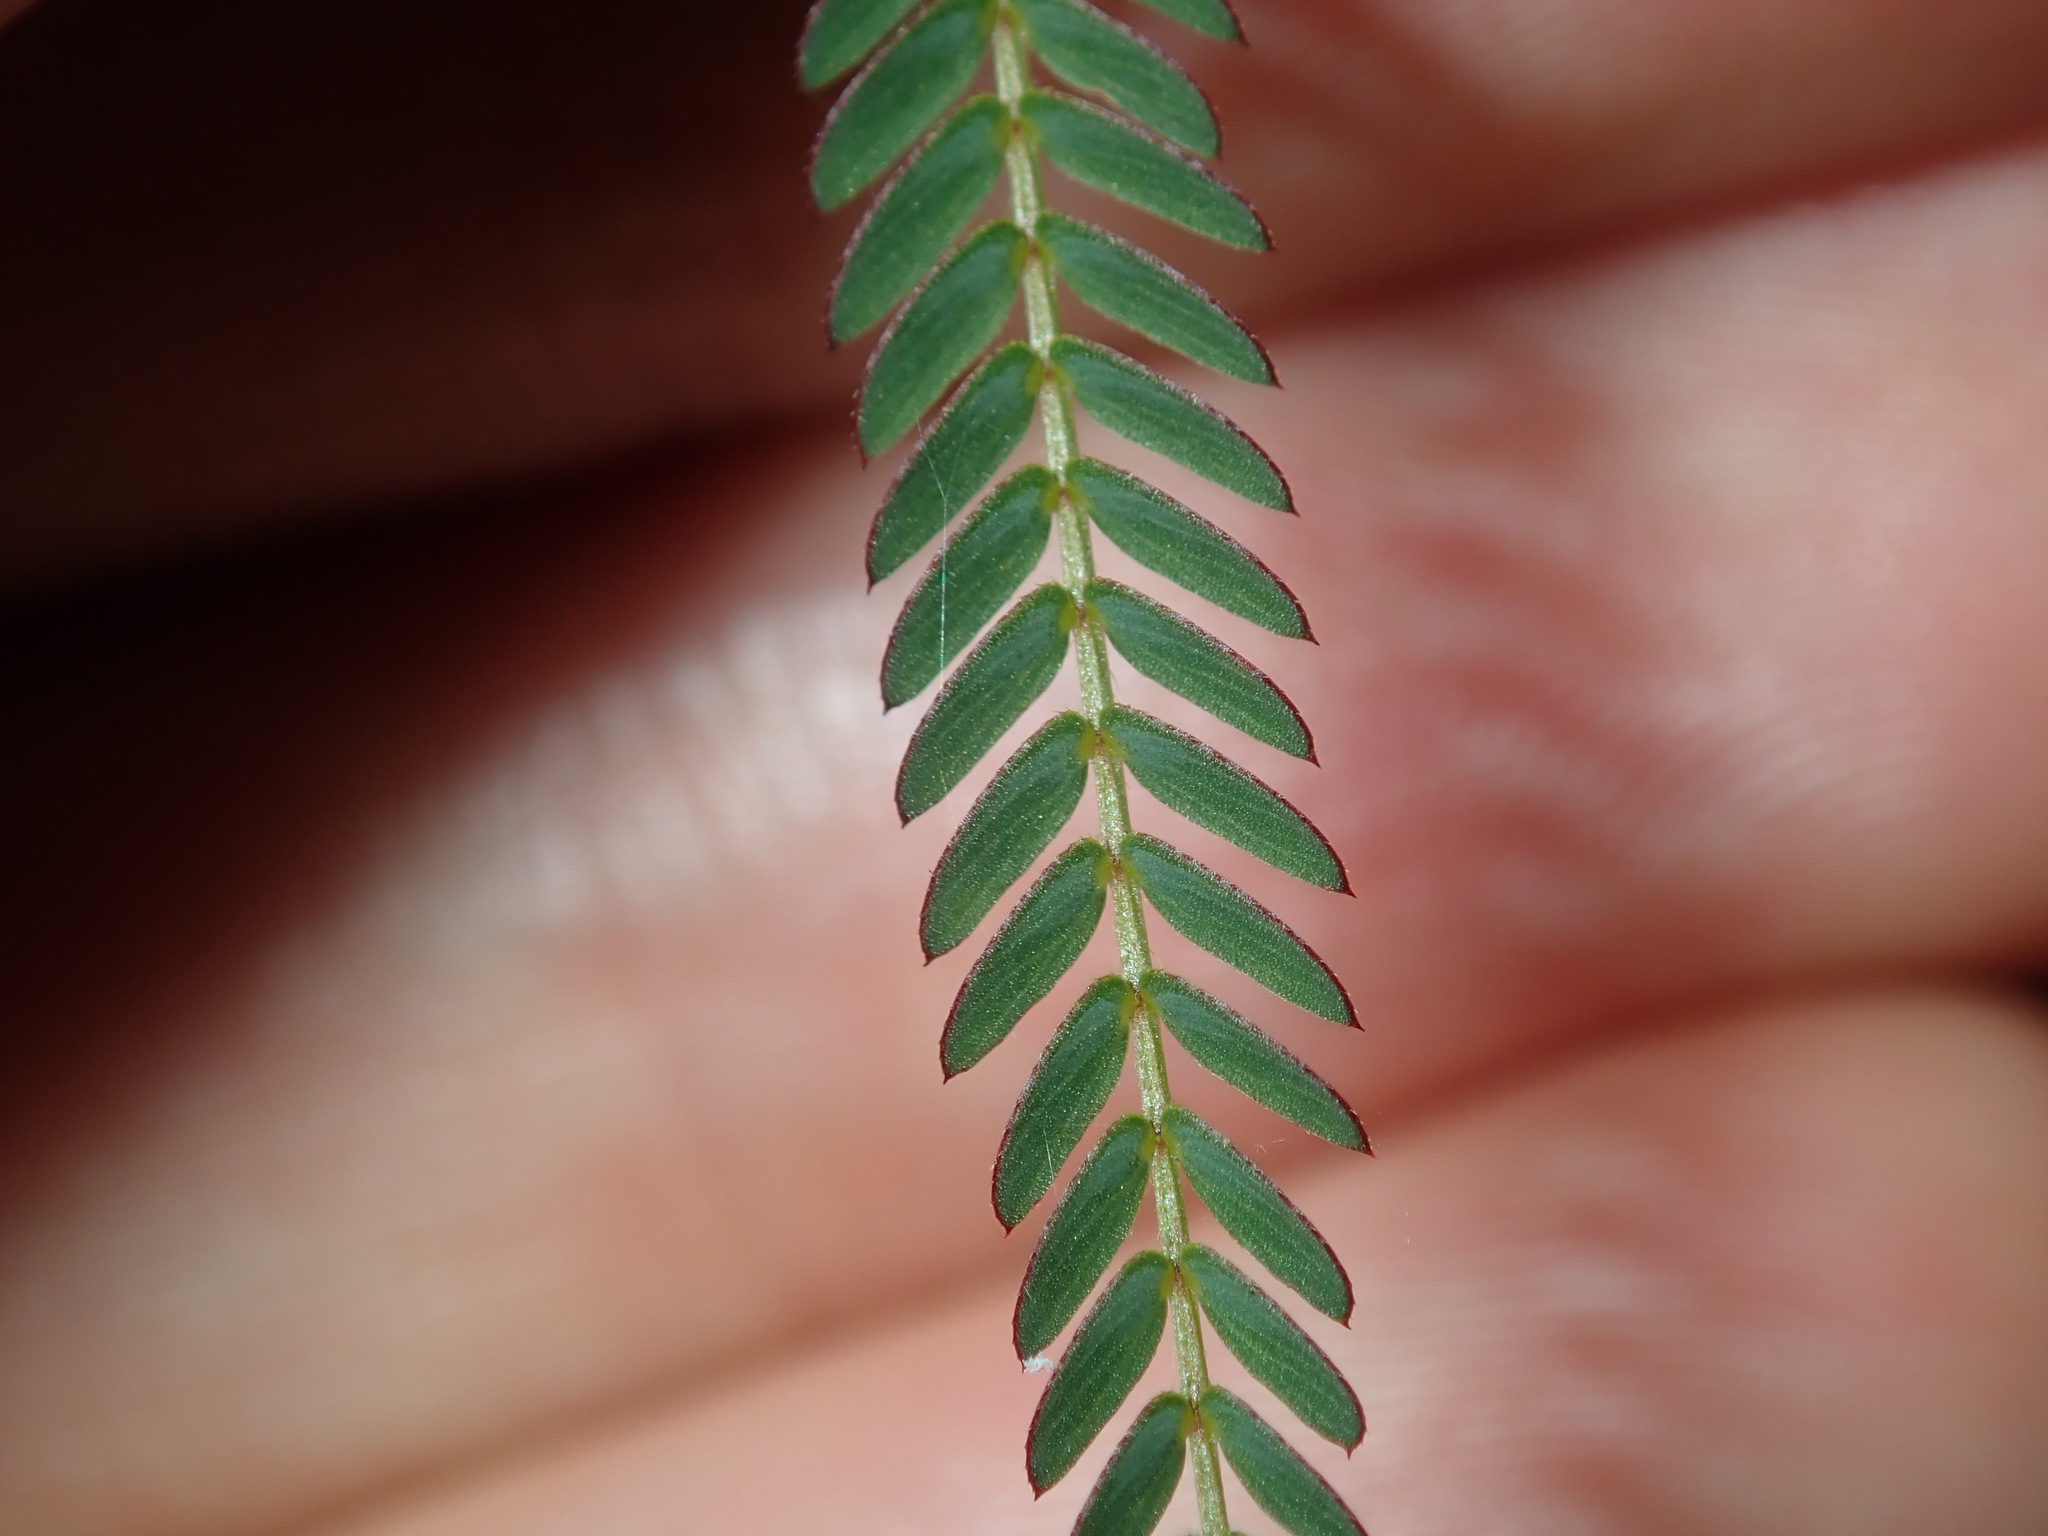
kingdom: Plantae
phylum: Tracheophyta
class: Magnoliopsida
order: Fabales
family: Fabaceae
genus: Chamaecrista
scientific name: Chamaecrista nomame
